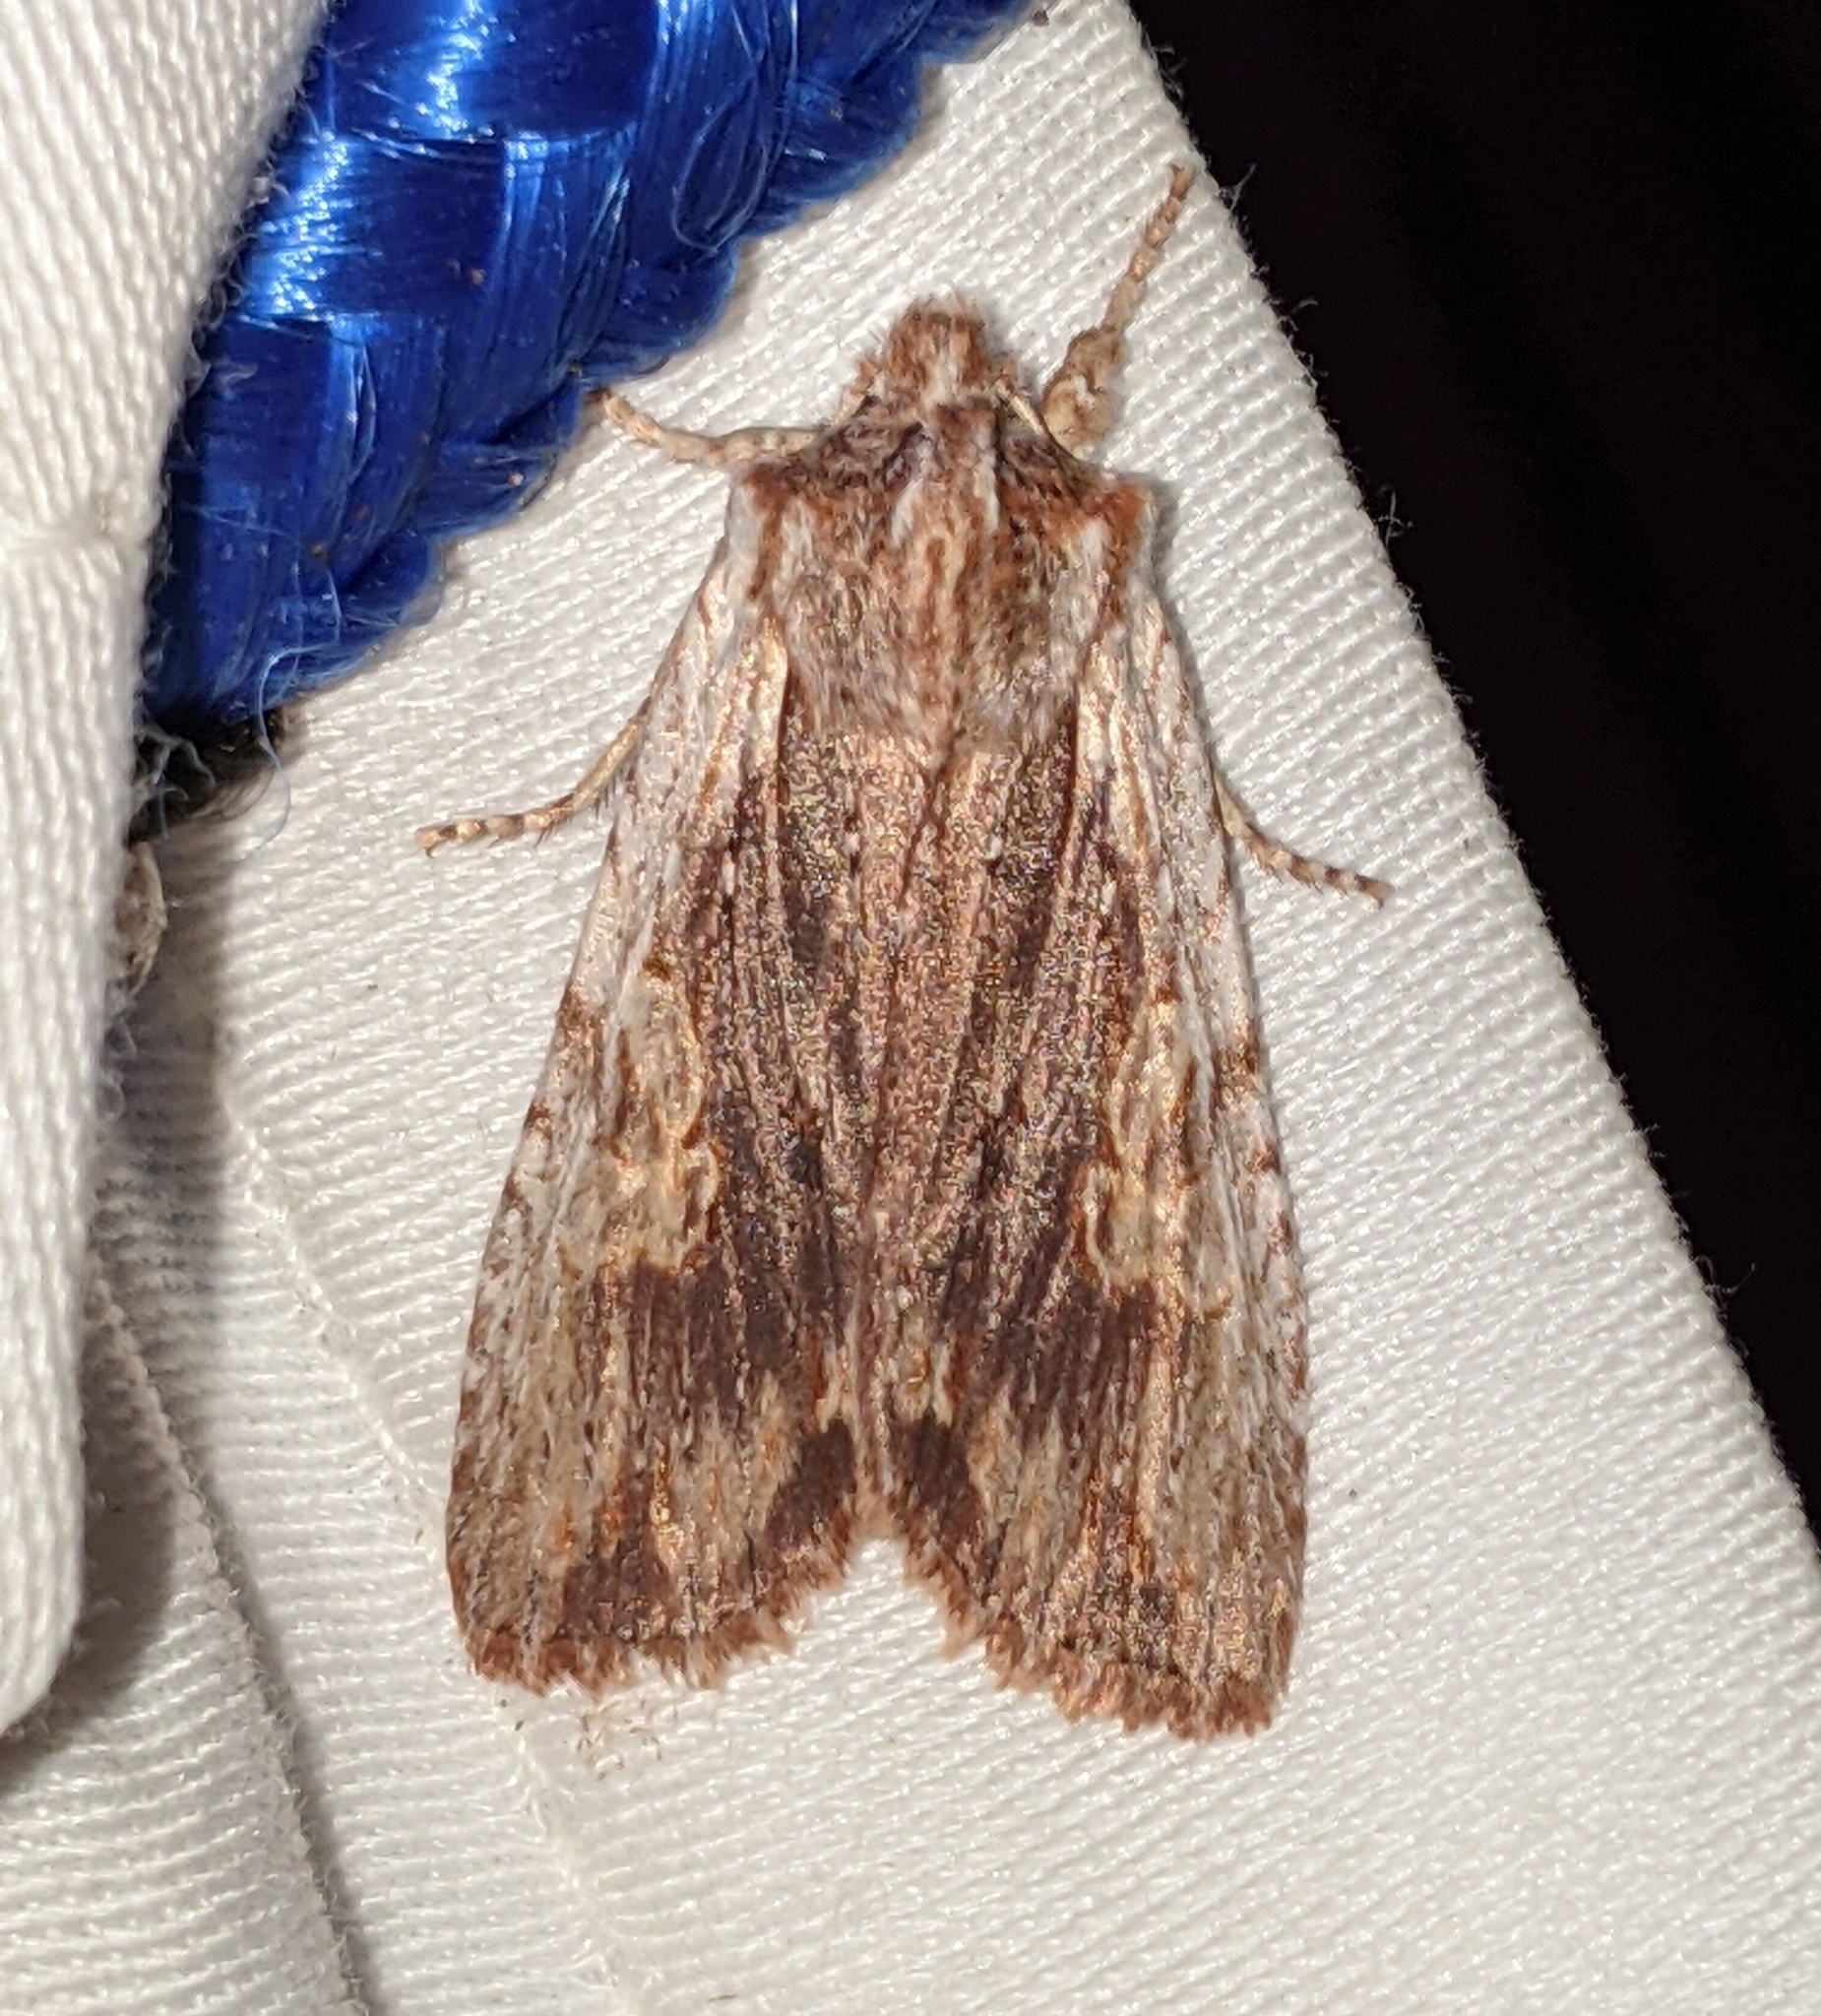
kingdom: Animalia
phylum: Arthropoda
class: Insecta
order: Lepidoptera
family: Noctuidae
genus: Lithophane
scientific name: Lithophane petulca
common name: Wanton pinion
